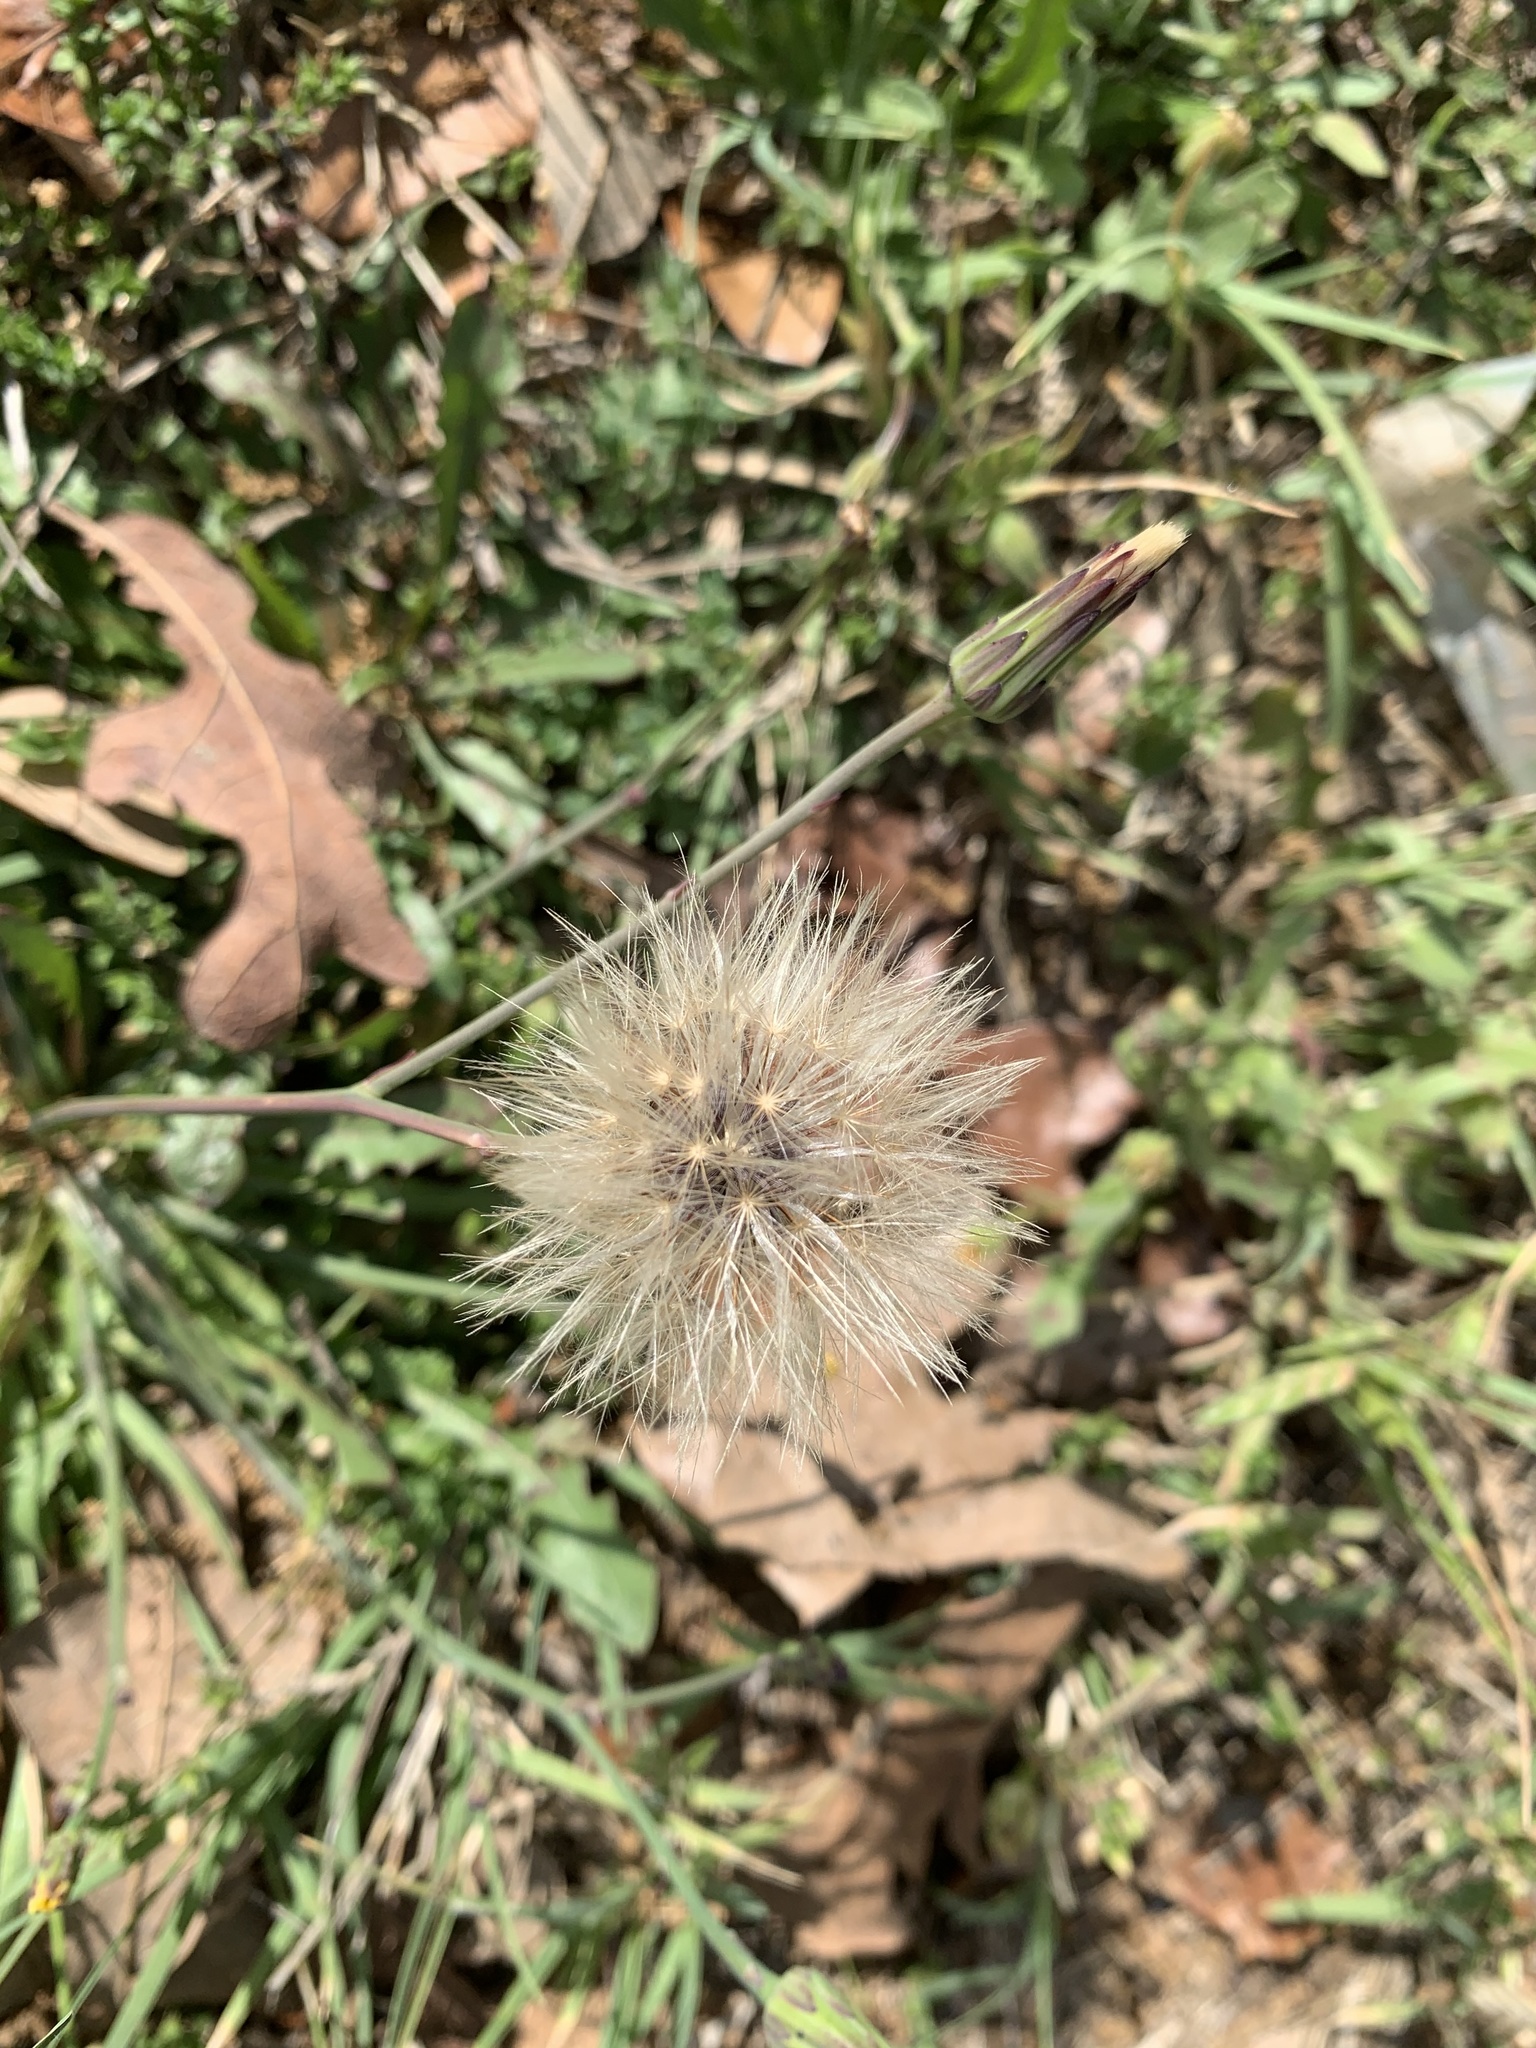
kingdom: Plantae
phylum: Tracheophyta
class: Magnoliopsida
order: Asterales
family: Asteraceae
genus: Hypochaeris
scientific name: Hypochaeris glabra
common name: Smooth catsear
